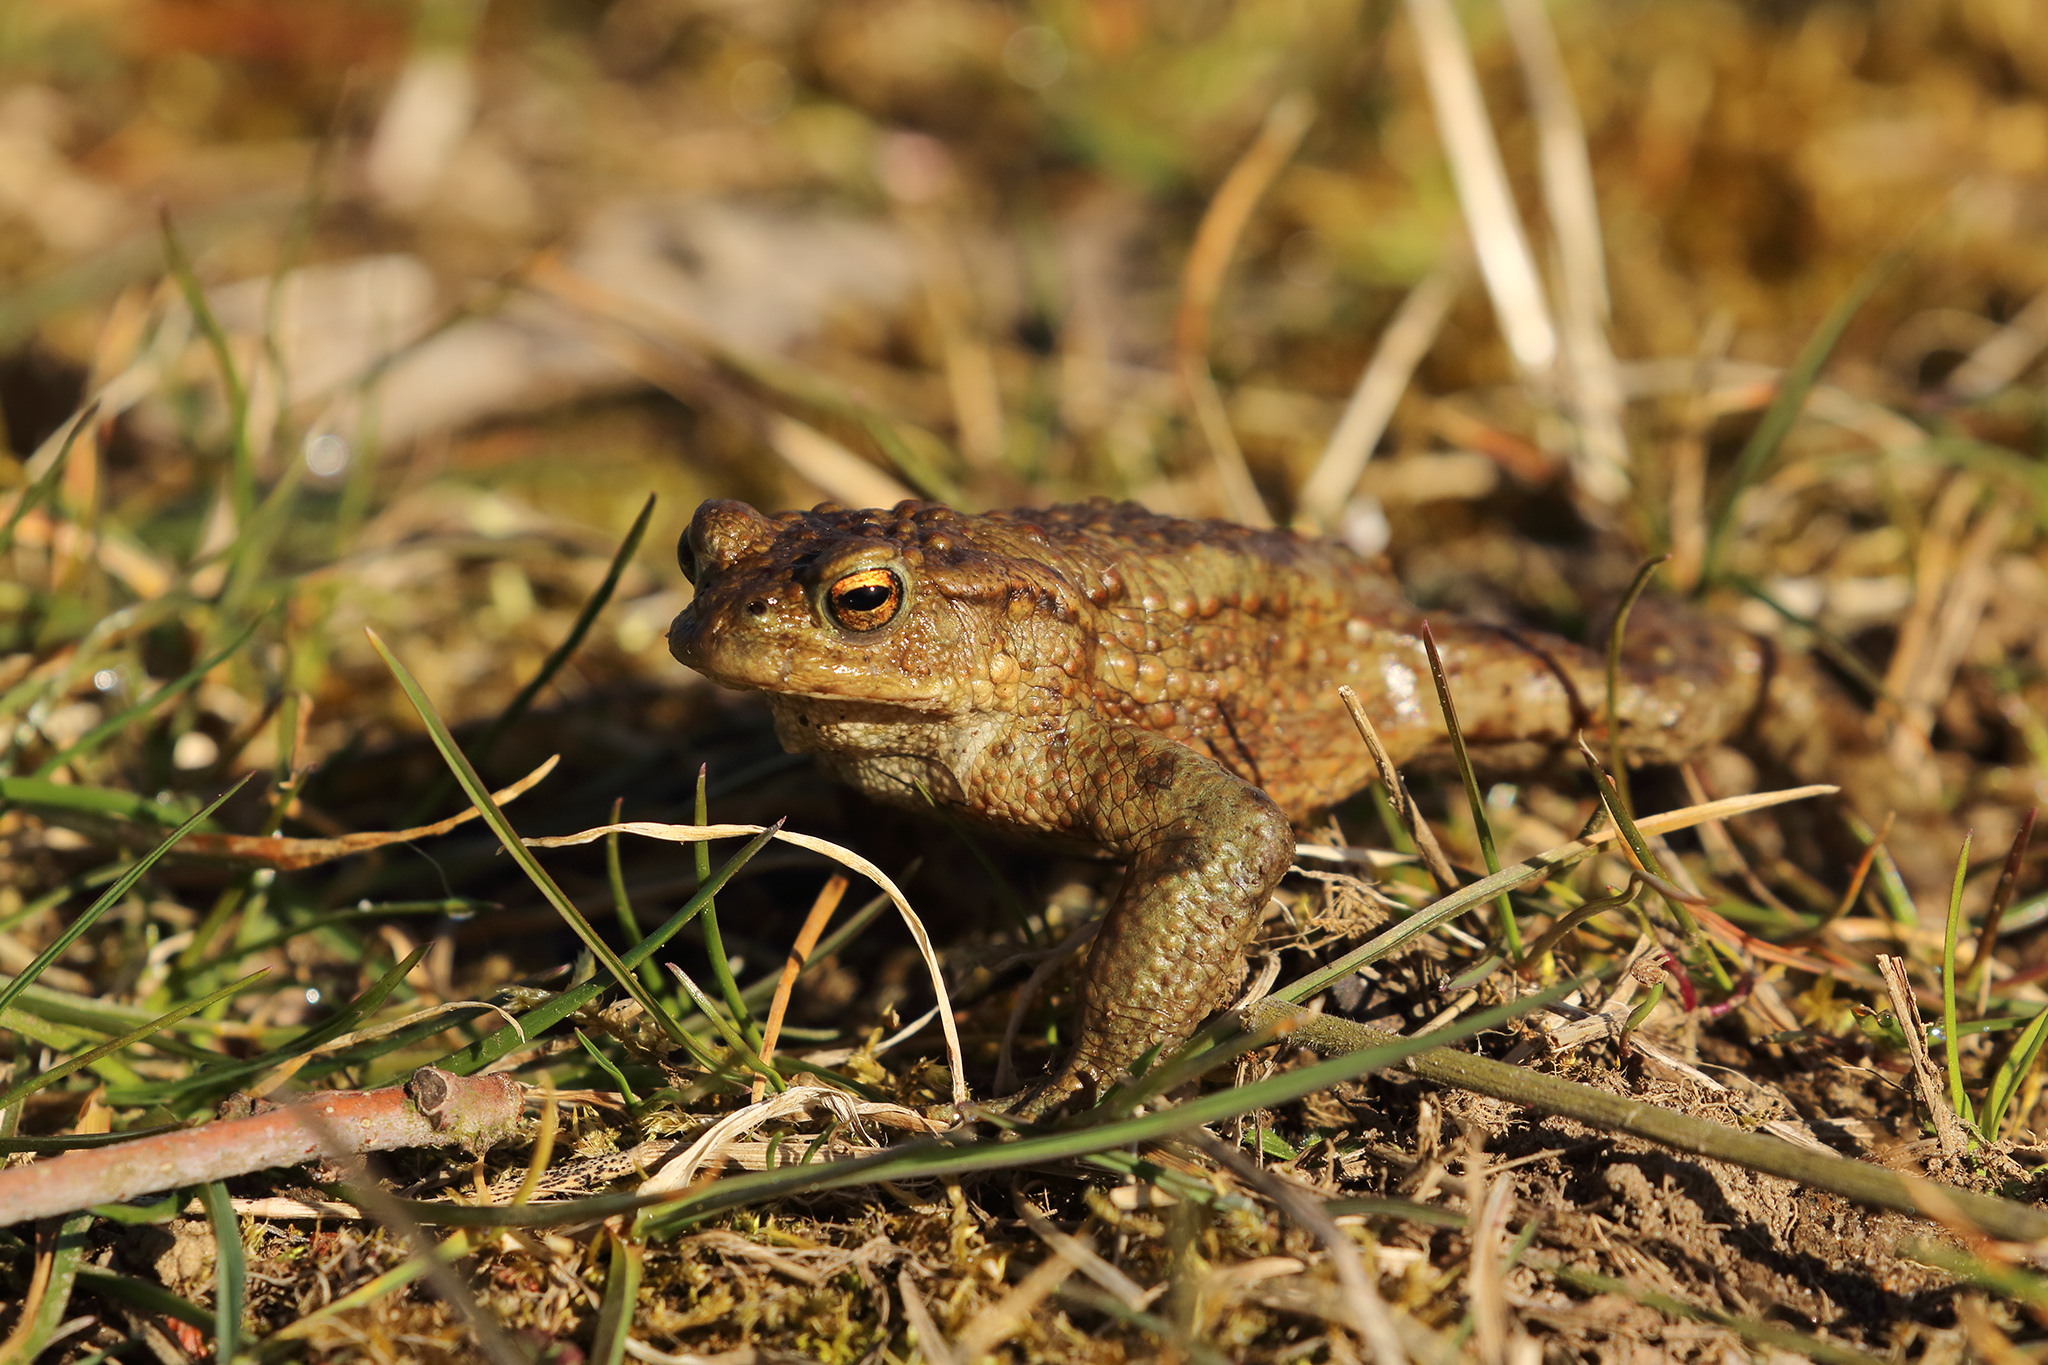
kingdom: Animalia
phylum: Chordata
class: Amphibia
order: Anura
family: Bufonidae
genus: Bufo
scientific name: Bufo bufo
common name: Common toad
